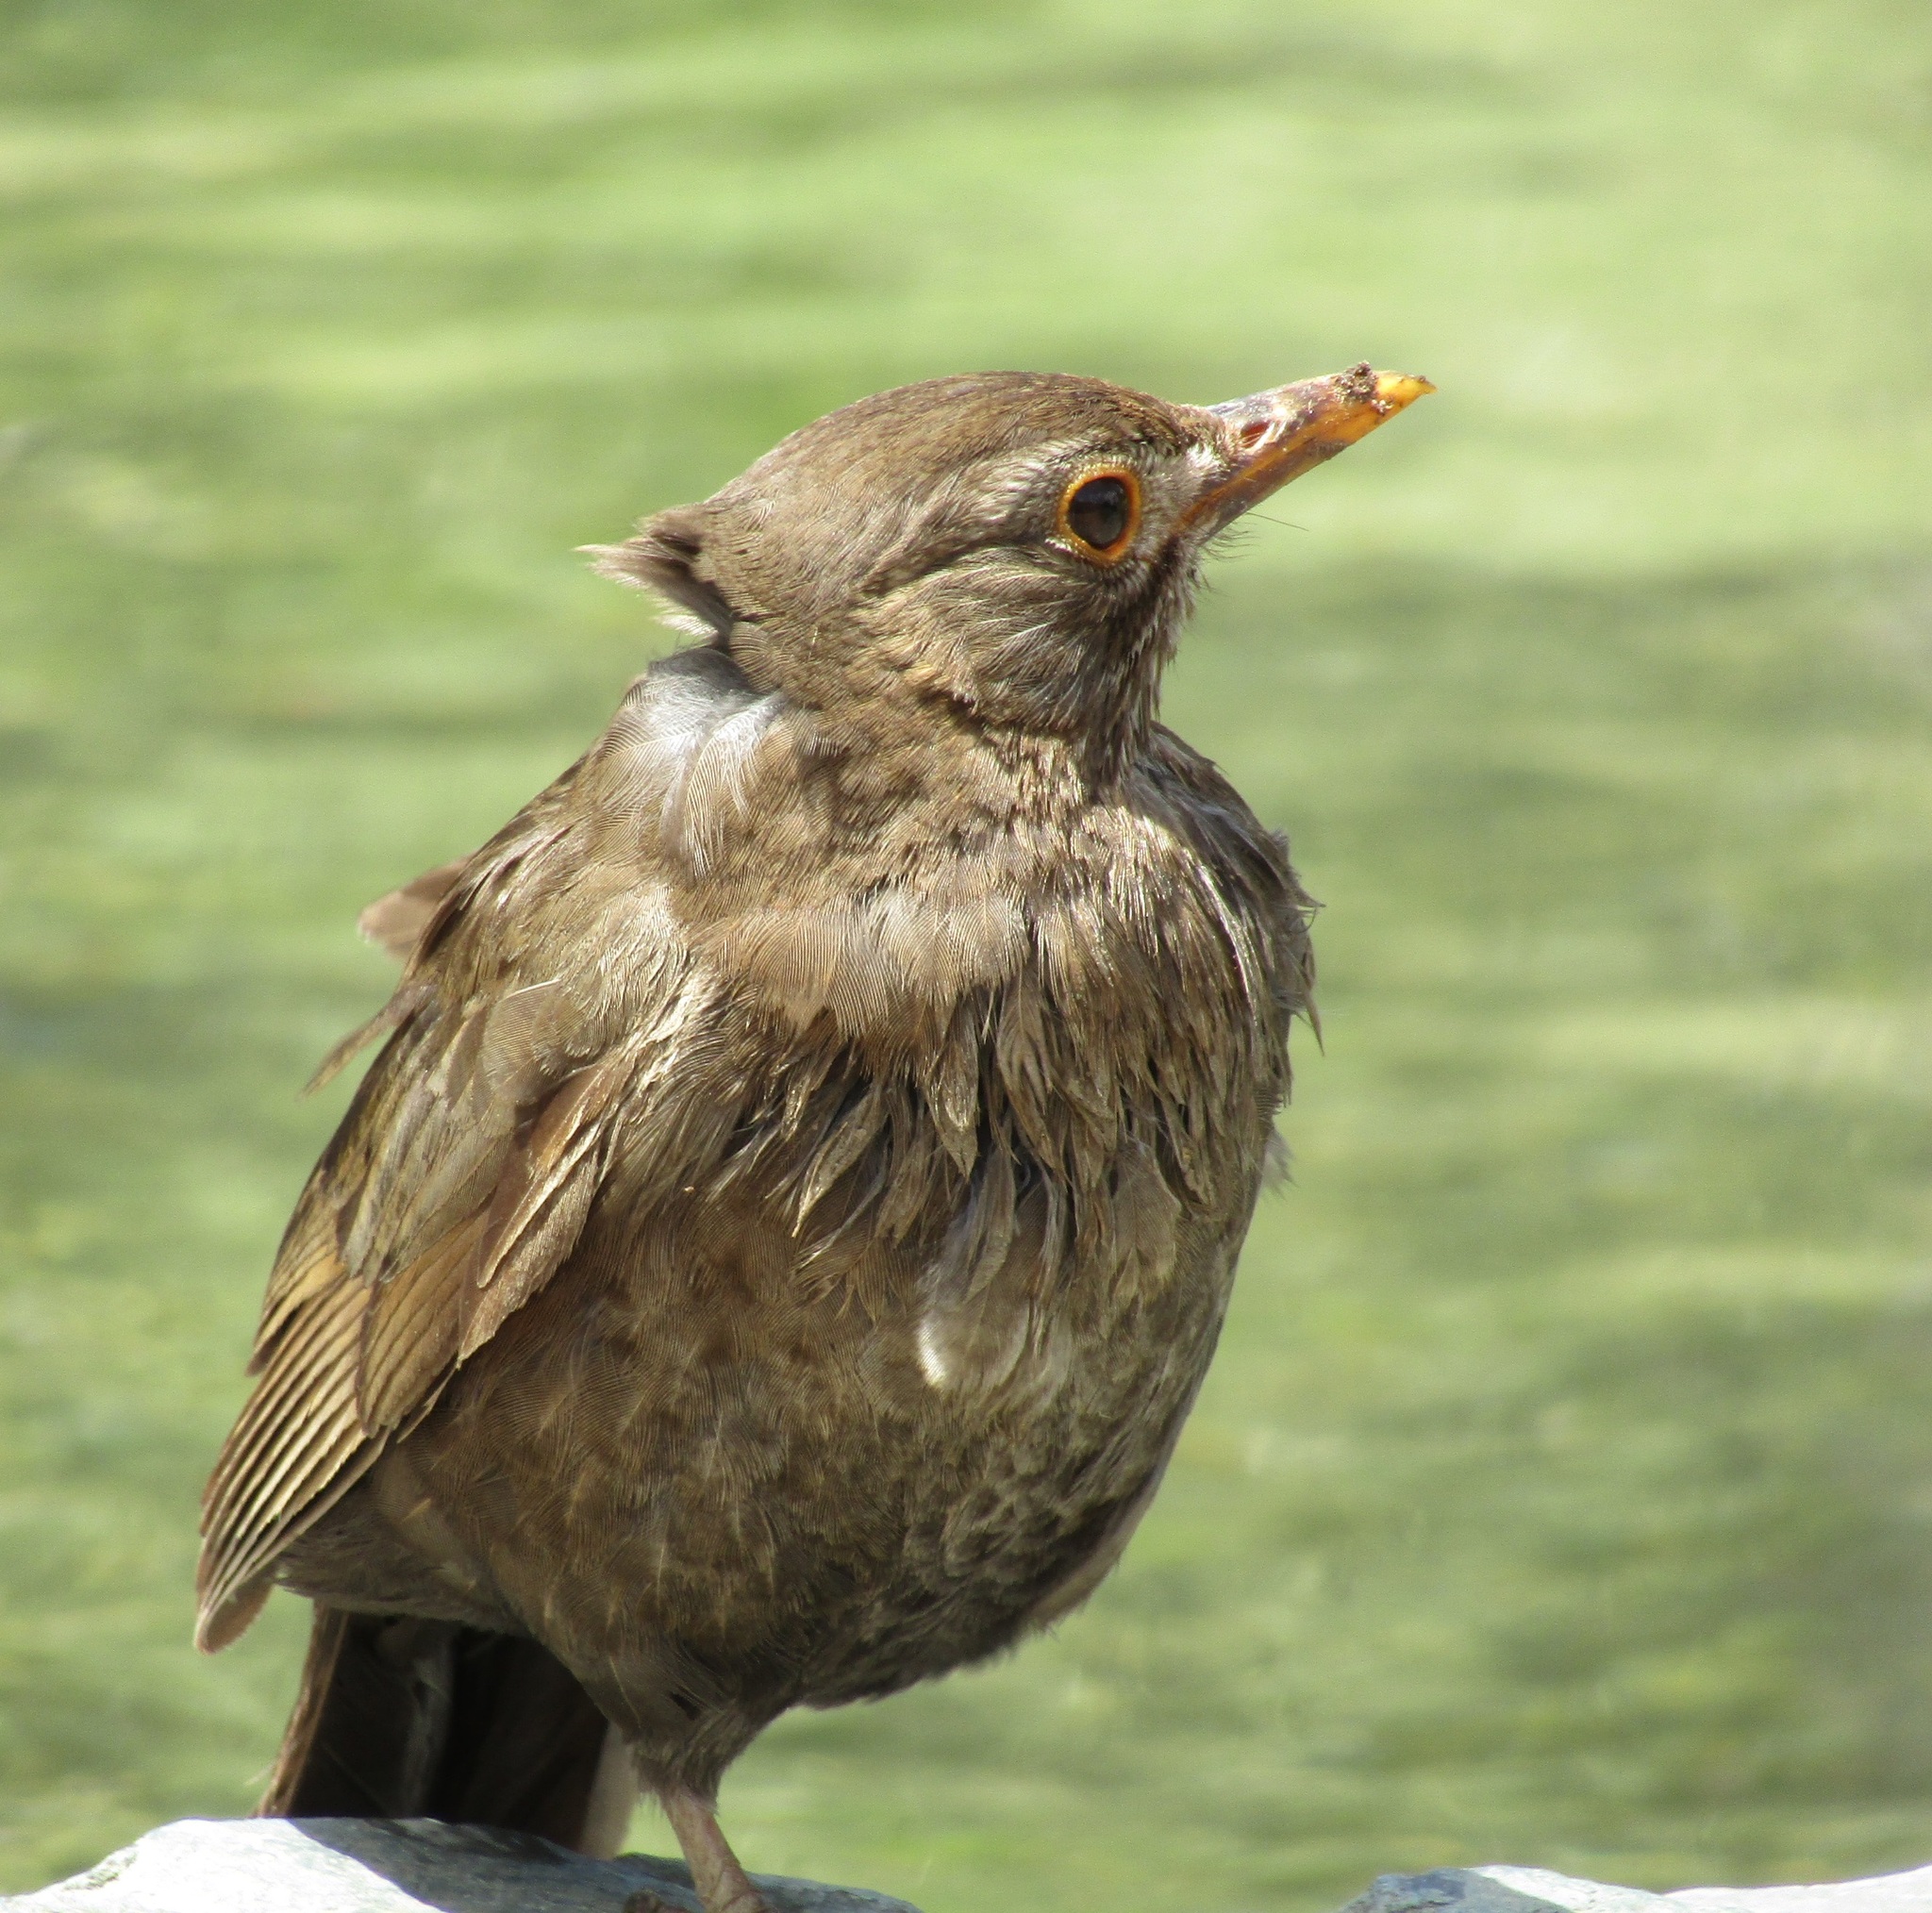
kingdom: Animalia
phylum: Chordata
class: Aves
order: Passeriformes
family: Turdidae
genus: Turdus
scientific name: Turdus merula
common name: Common blackbird
